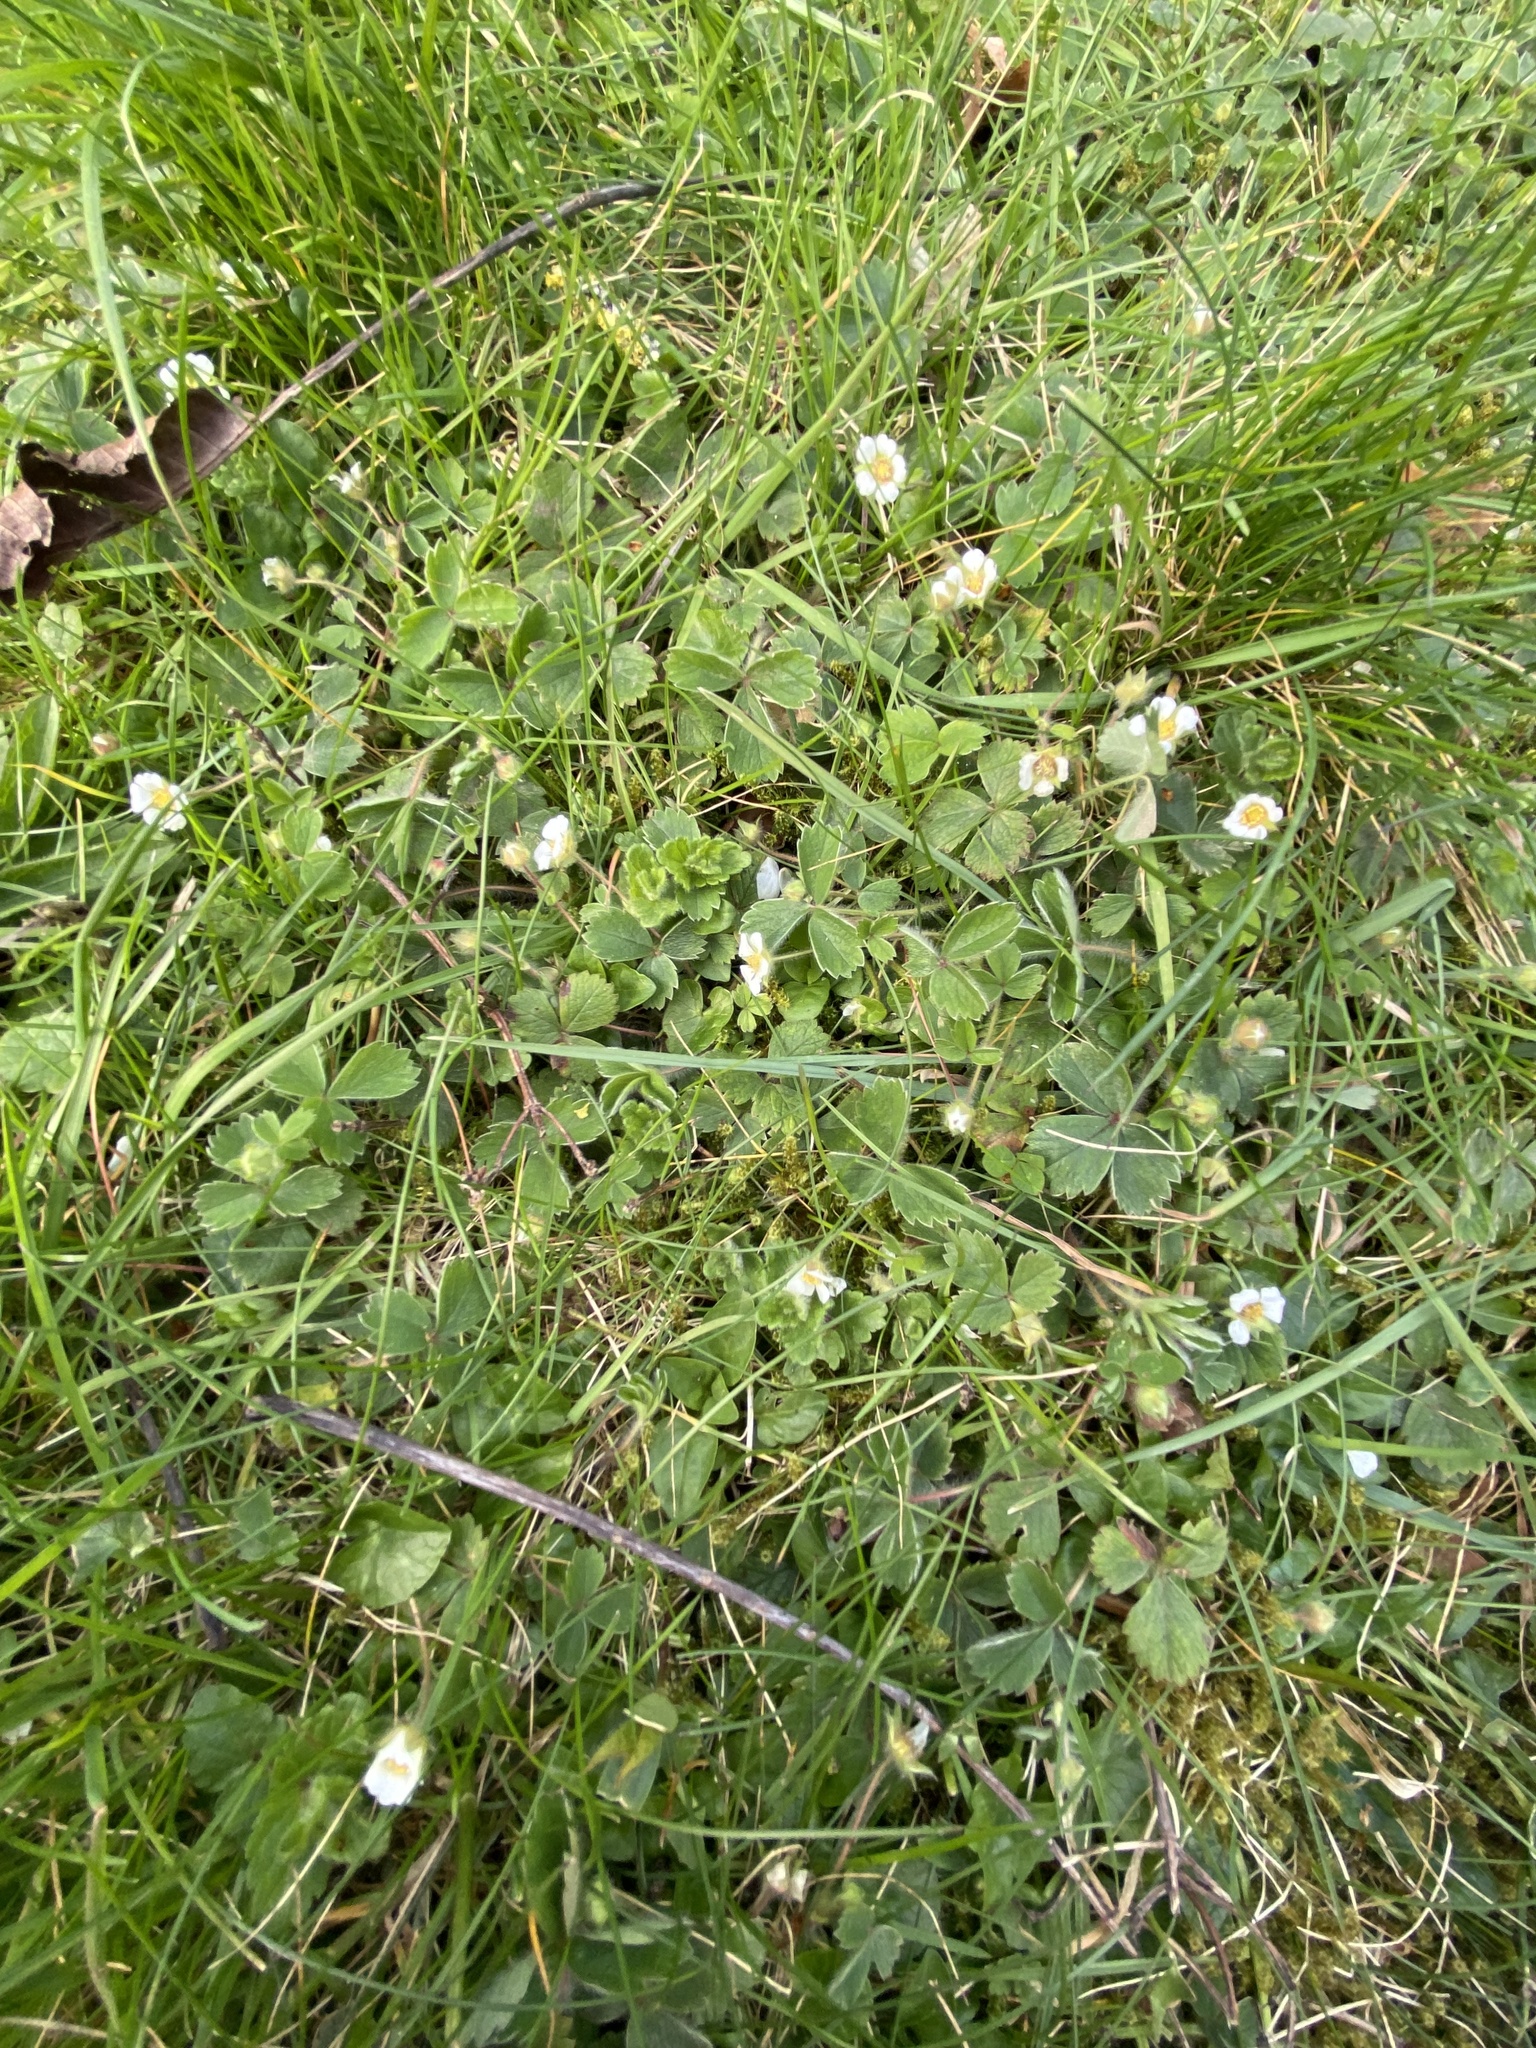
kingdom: Plantae
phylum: Tracheophyta
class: Magnoliopsida
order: Asterales
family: Asteraceae
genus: Bellis
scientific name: Bellis perennis
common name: Lawndaisy
